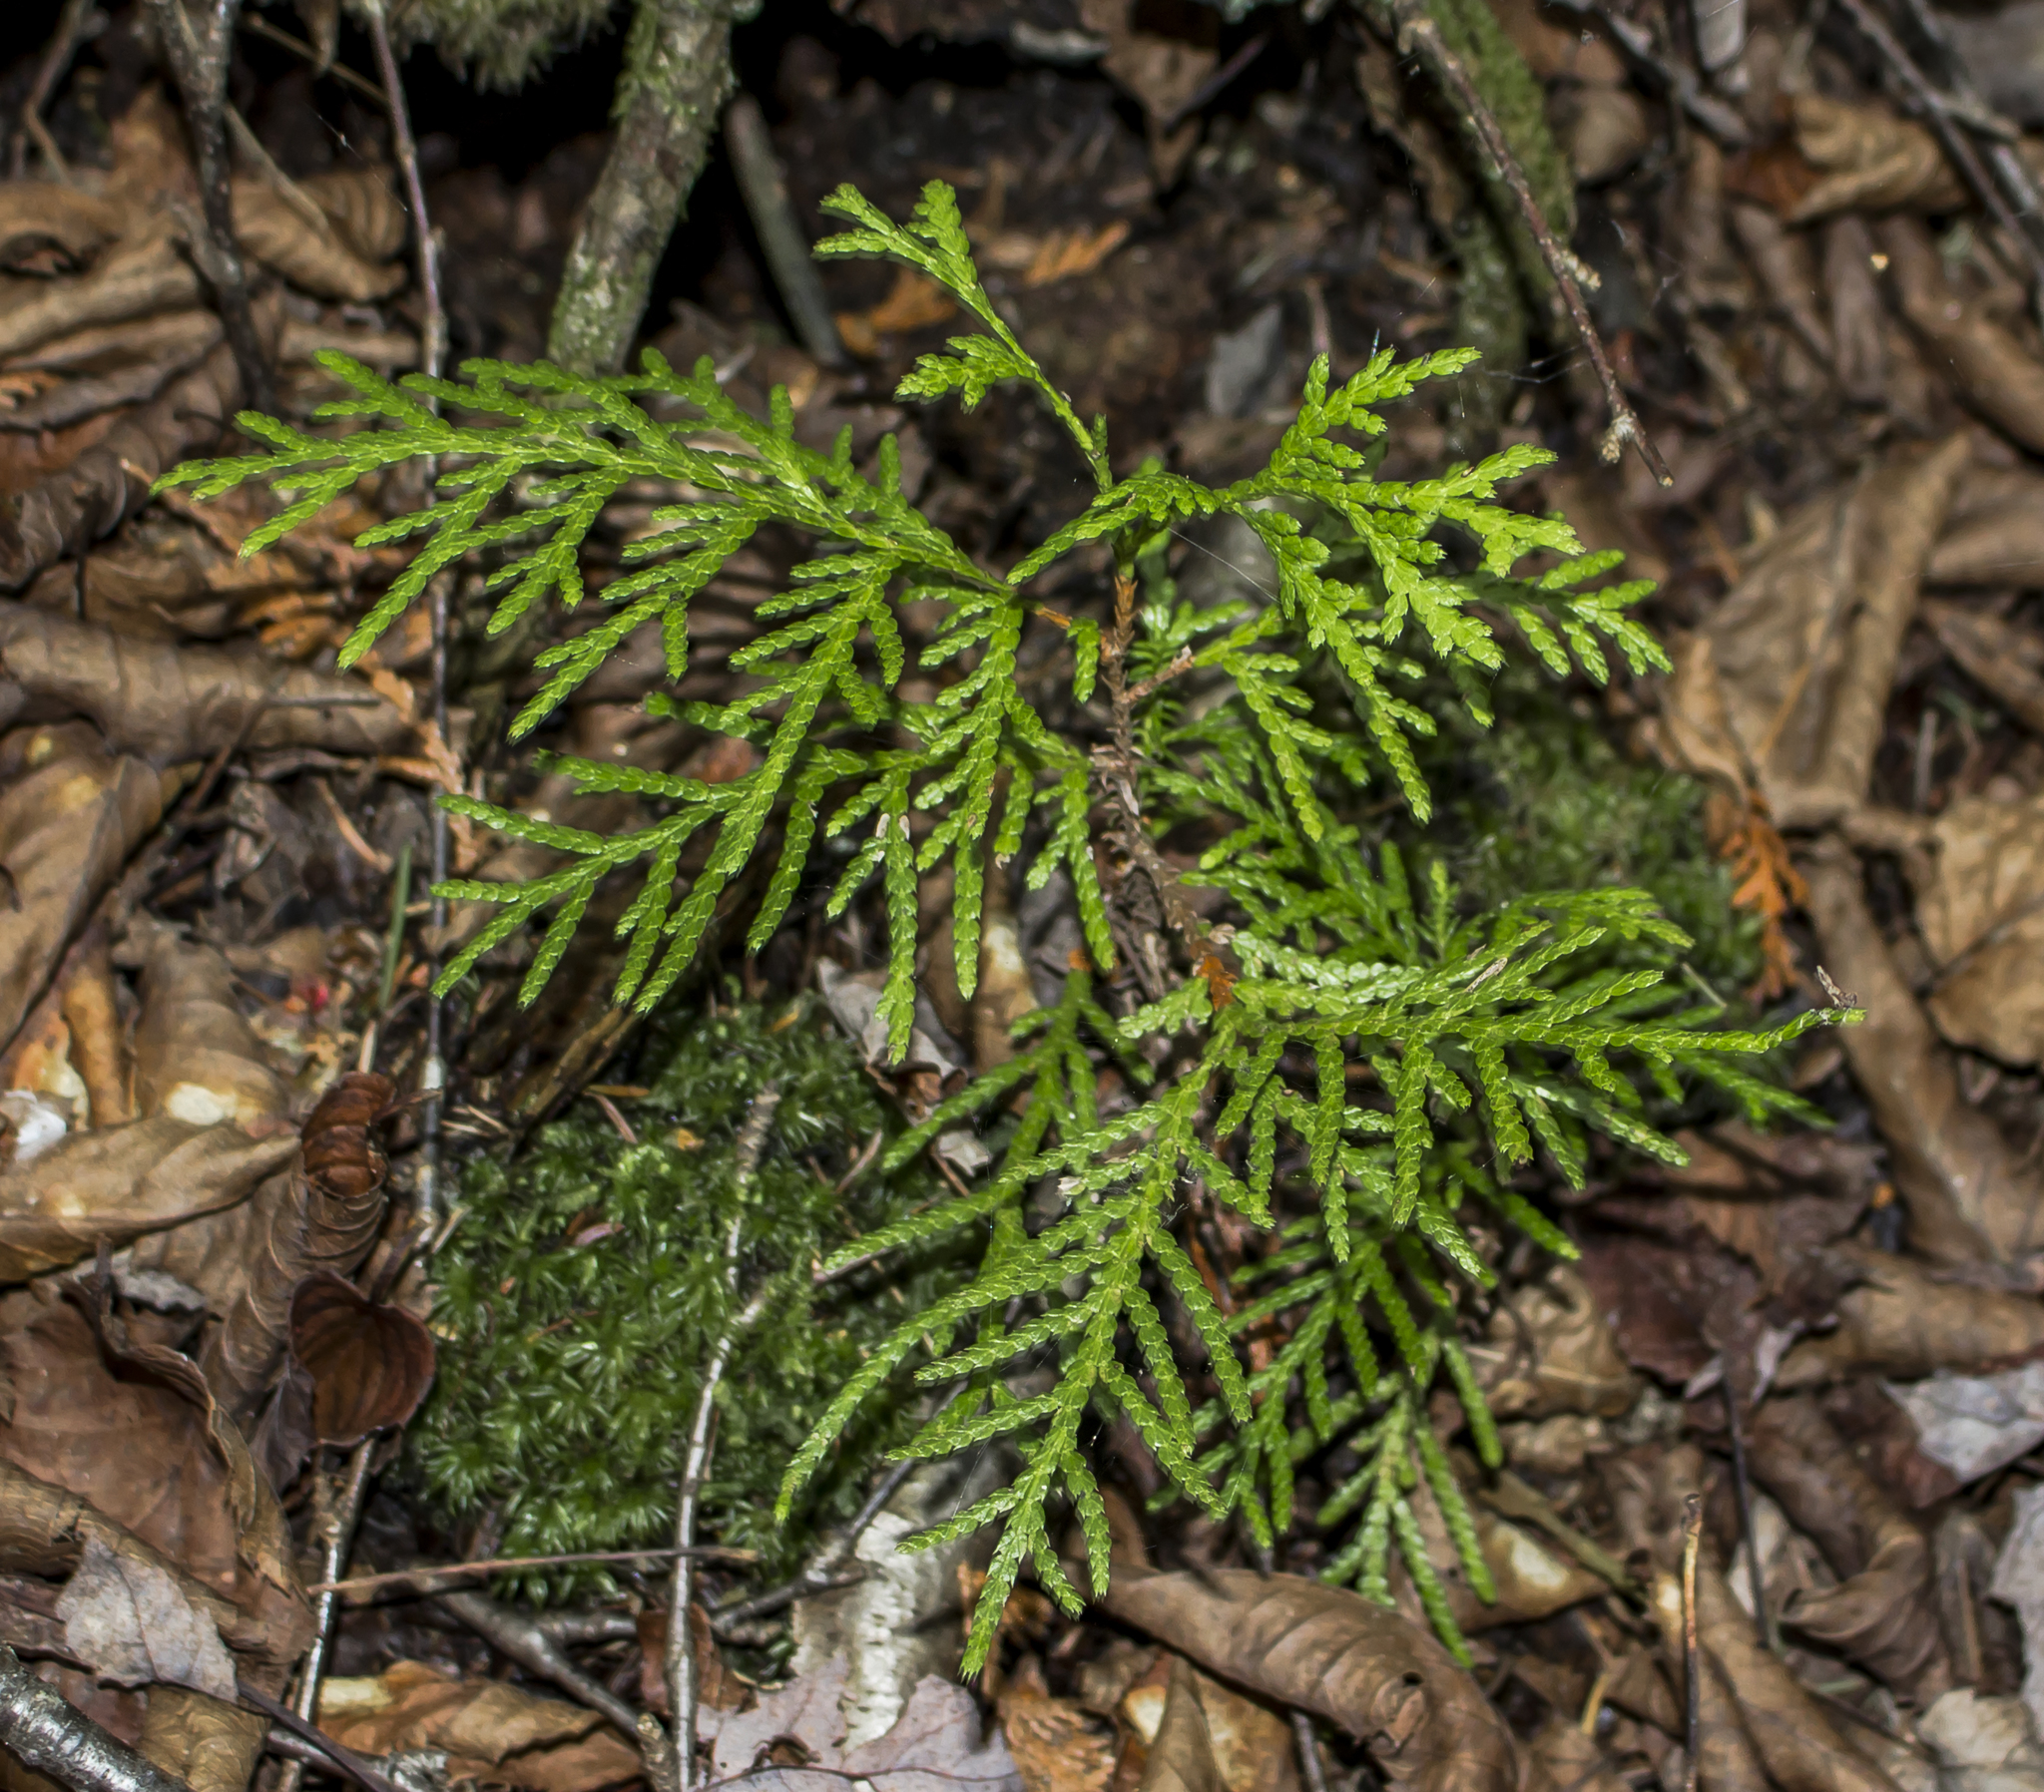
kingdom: Plantae
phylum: Tracheophyta
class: Pinopsida
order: Pinales
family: Cupressaceae
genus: Thuja
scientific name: Thuja occidentalis
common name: Northern white-cedar
